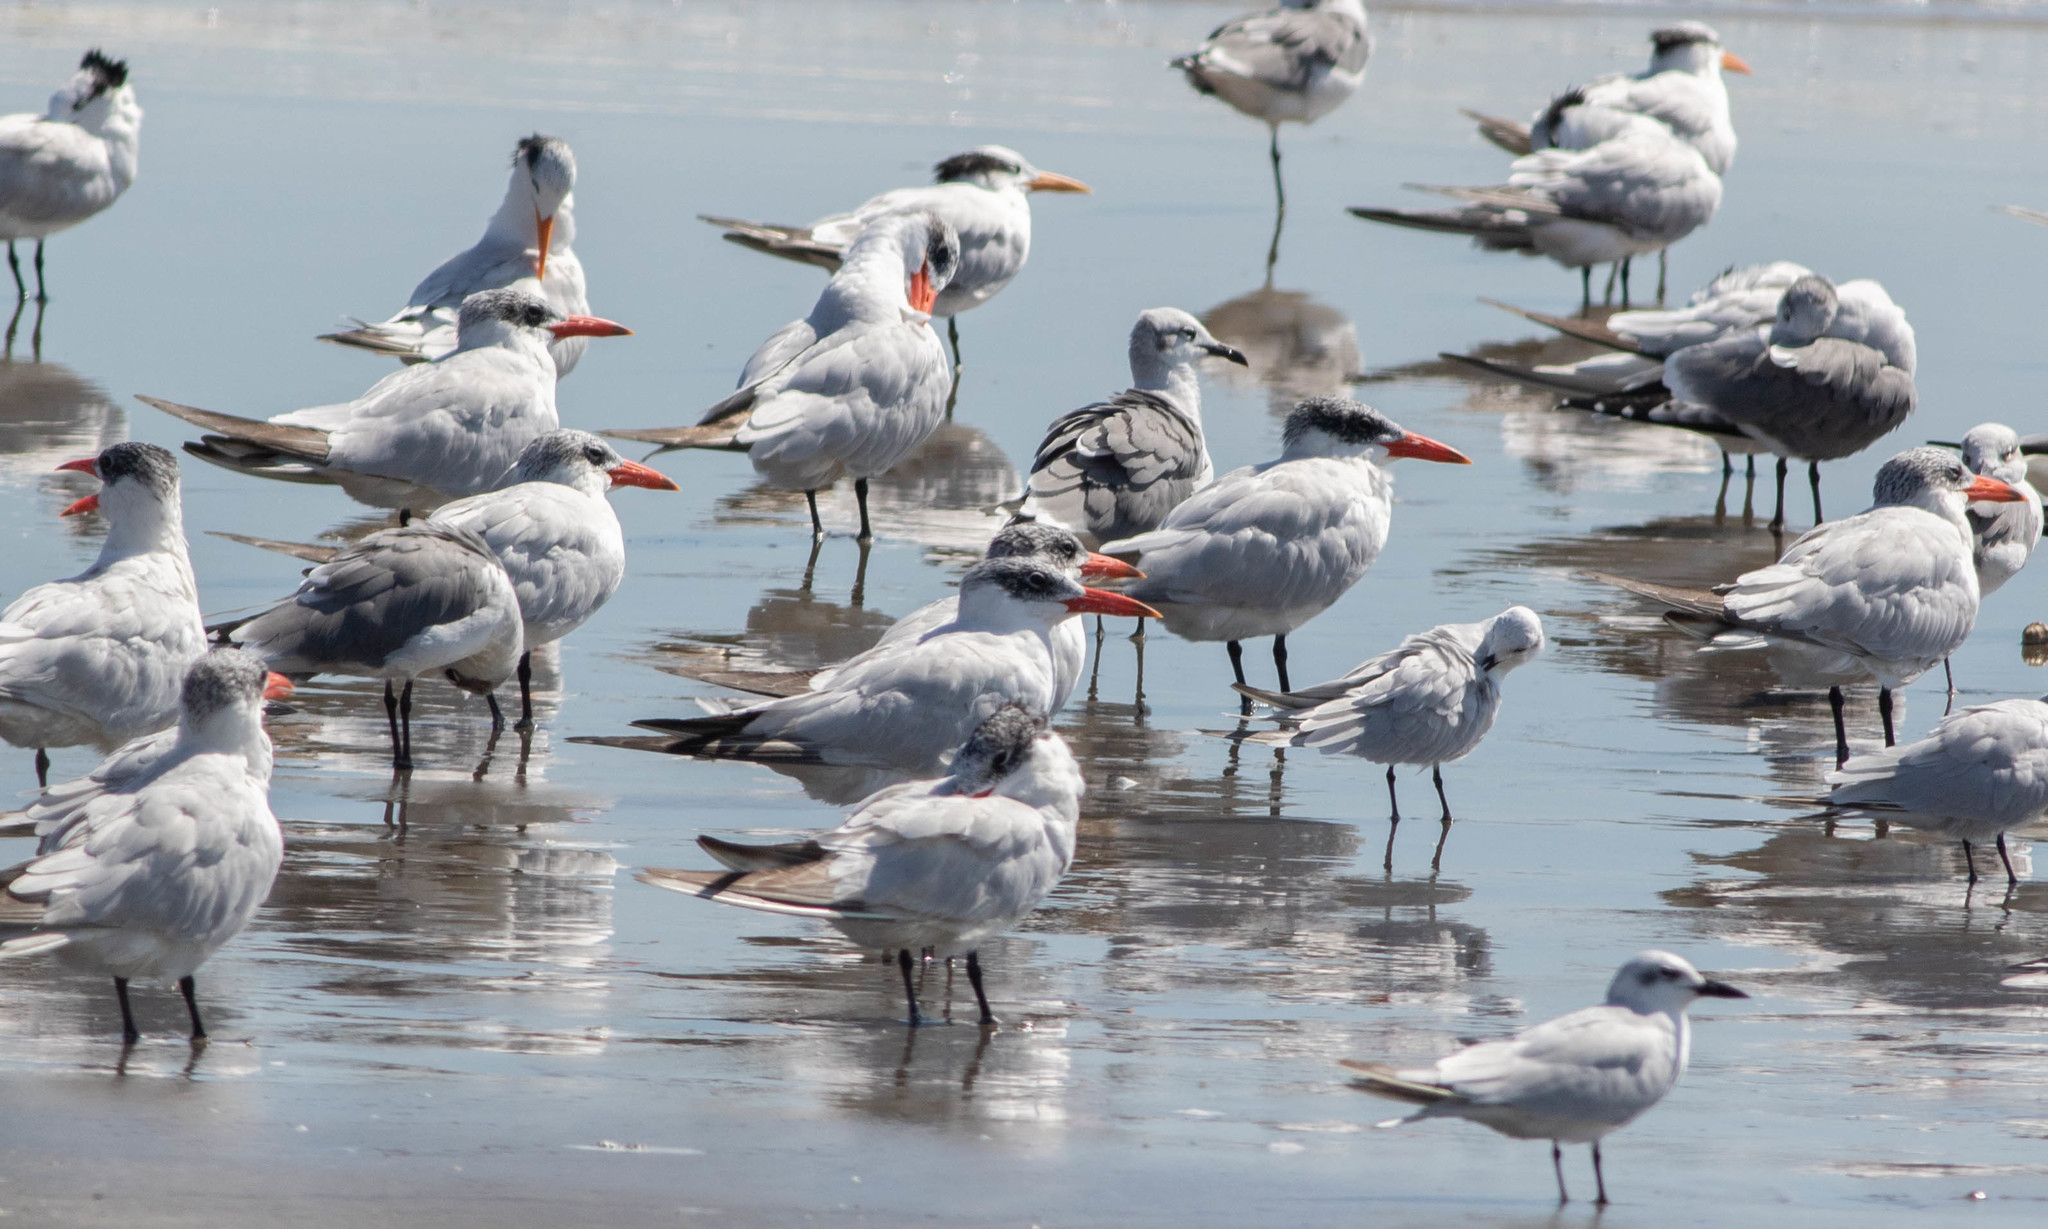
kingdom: Animalia
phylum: Chordata
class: Aves
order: Charadriiformes
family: Laridae
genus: Thalasseus
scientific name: Thalasseus maximus
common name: Royal tern
